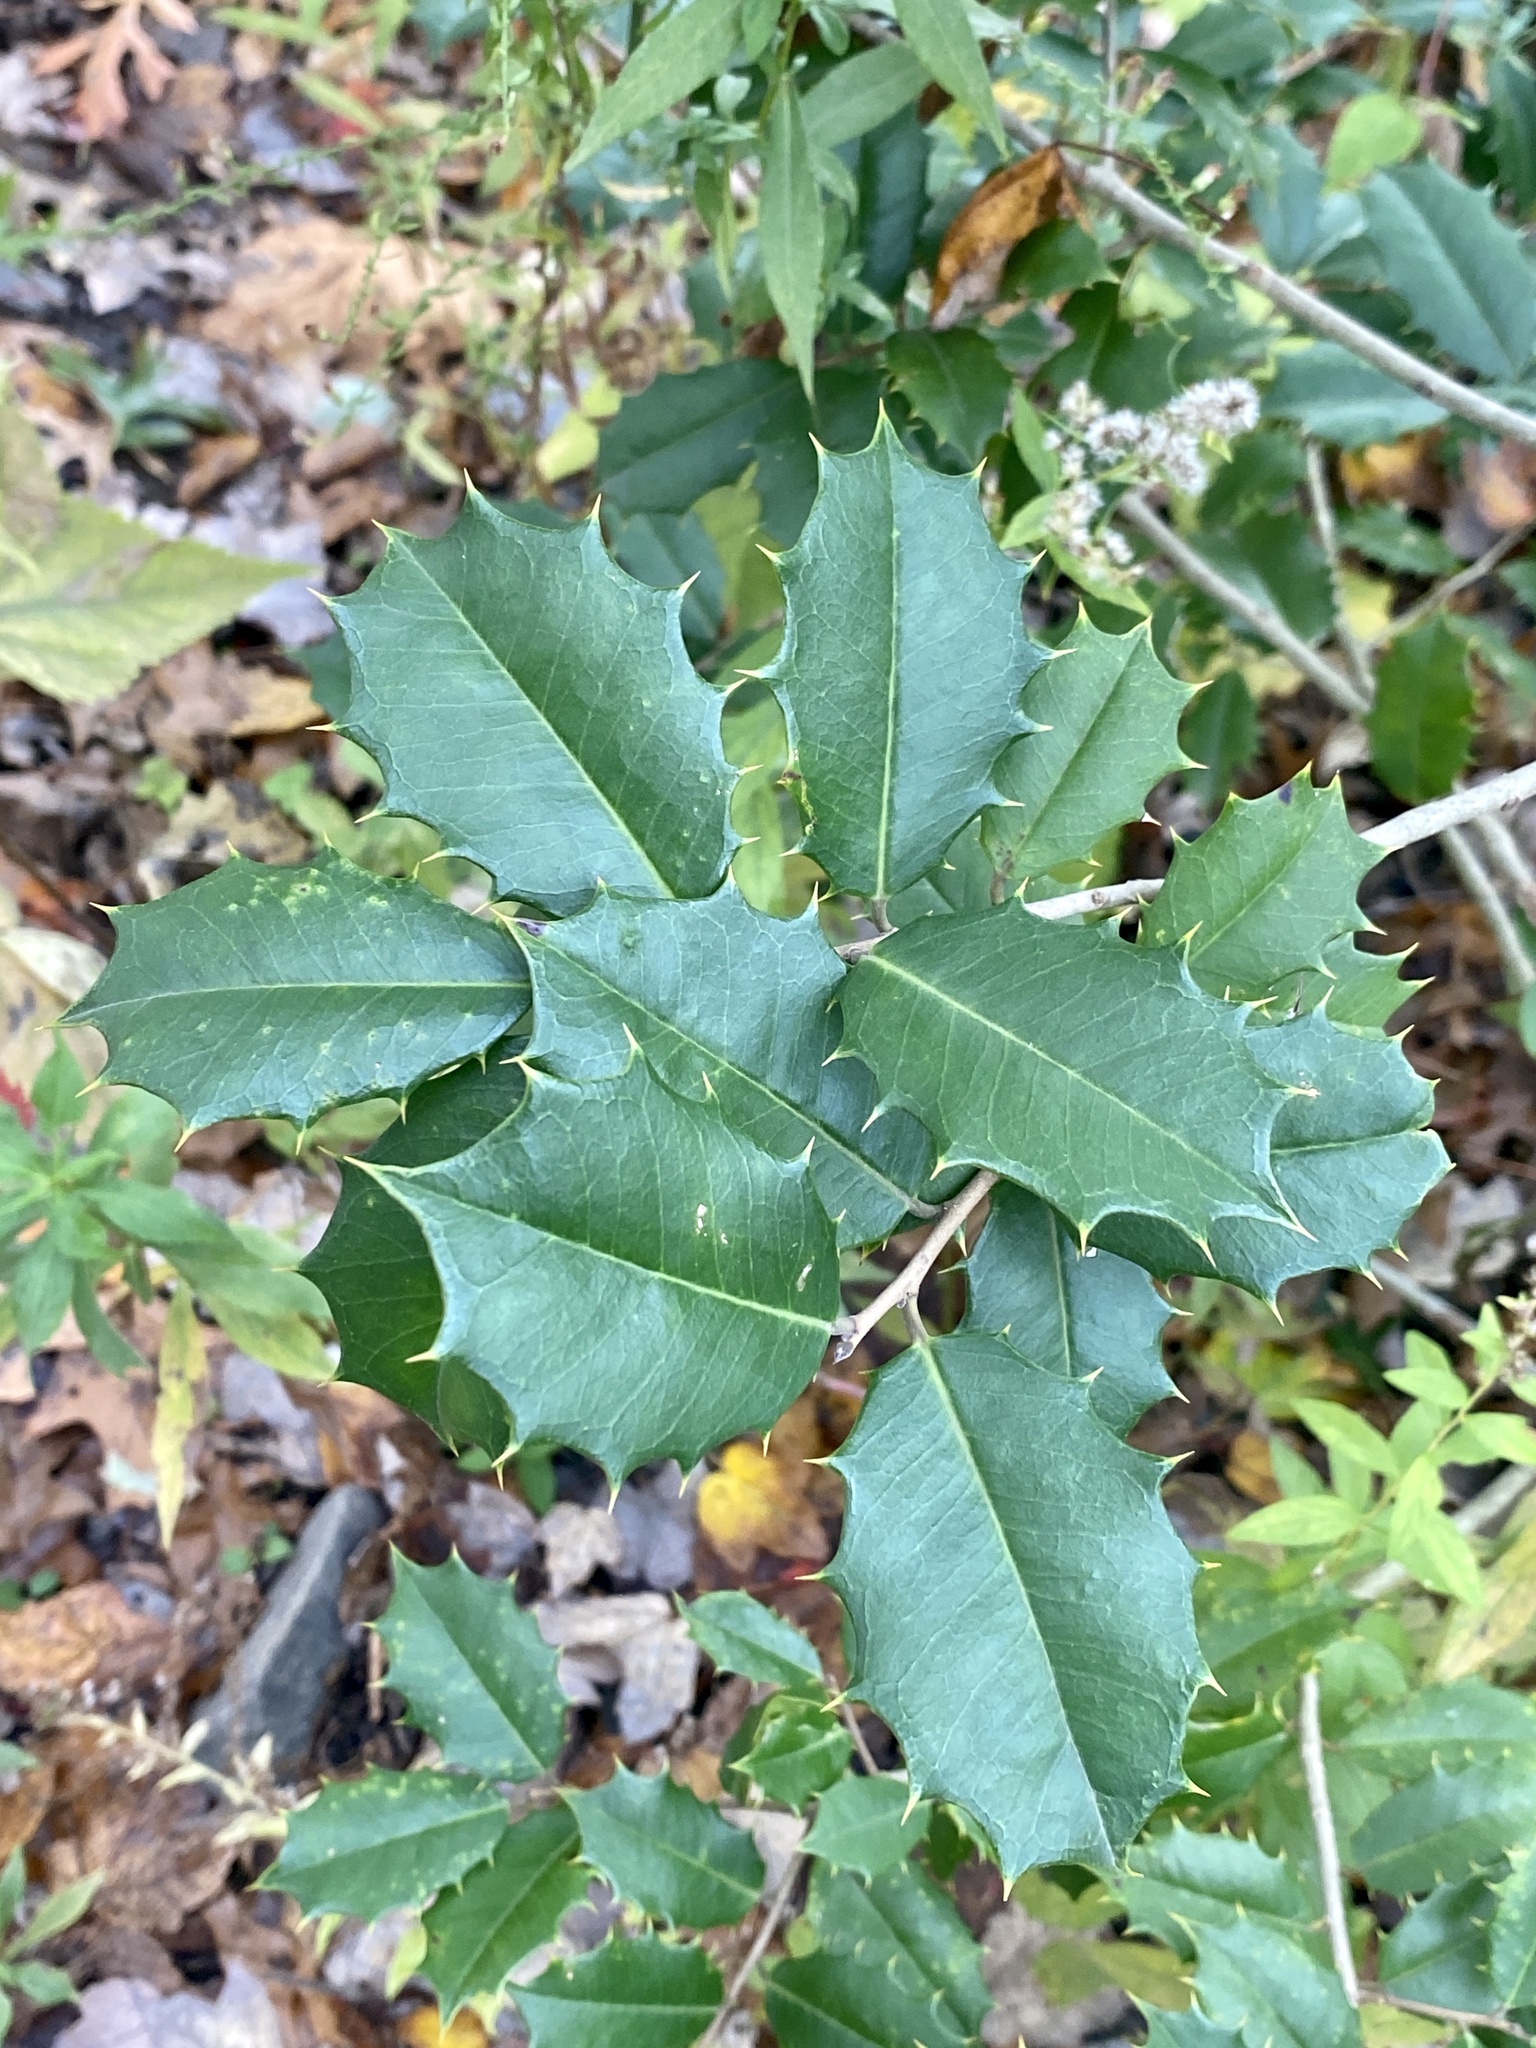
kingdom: Plantae
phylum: Tracheophyta
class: Magnoliopsida
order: Aquifoliales
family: Aquifoliaceae
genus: Ilex
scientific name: Ilex opaca
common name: American holly
